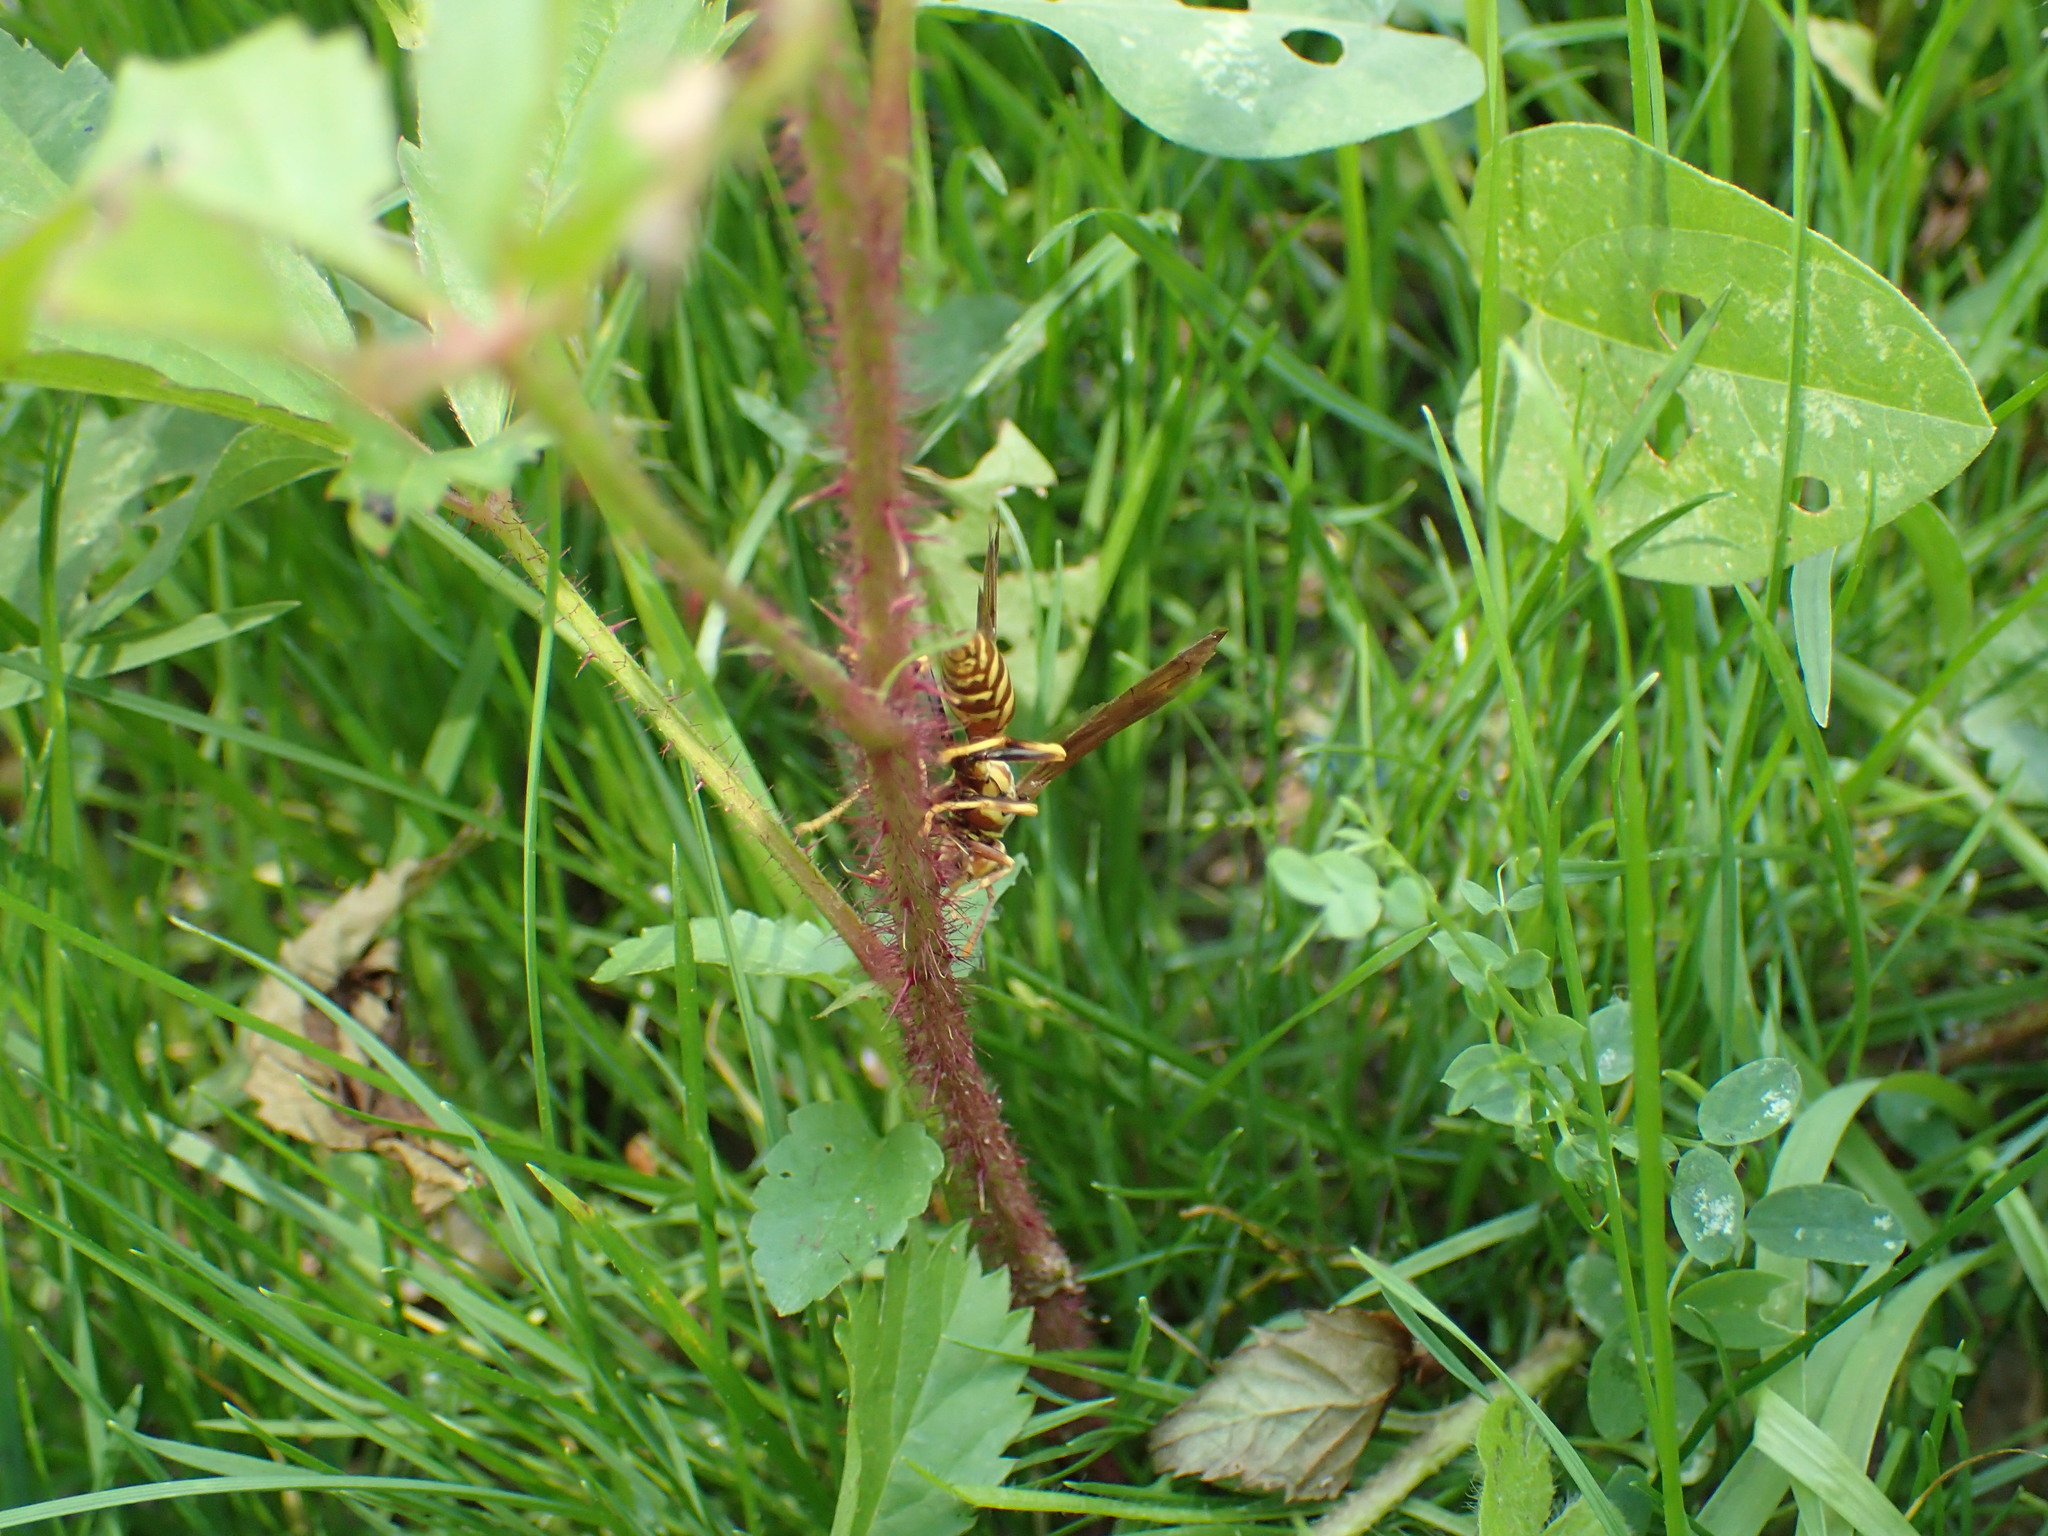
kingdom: Animalia
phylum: Arthropoda
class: Insecta
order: Hymenoptera
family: Eumenidae
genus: Polistes
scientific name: Polistes exclamans
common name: Paper wasp
